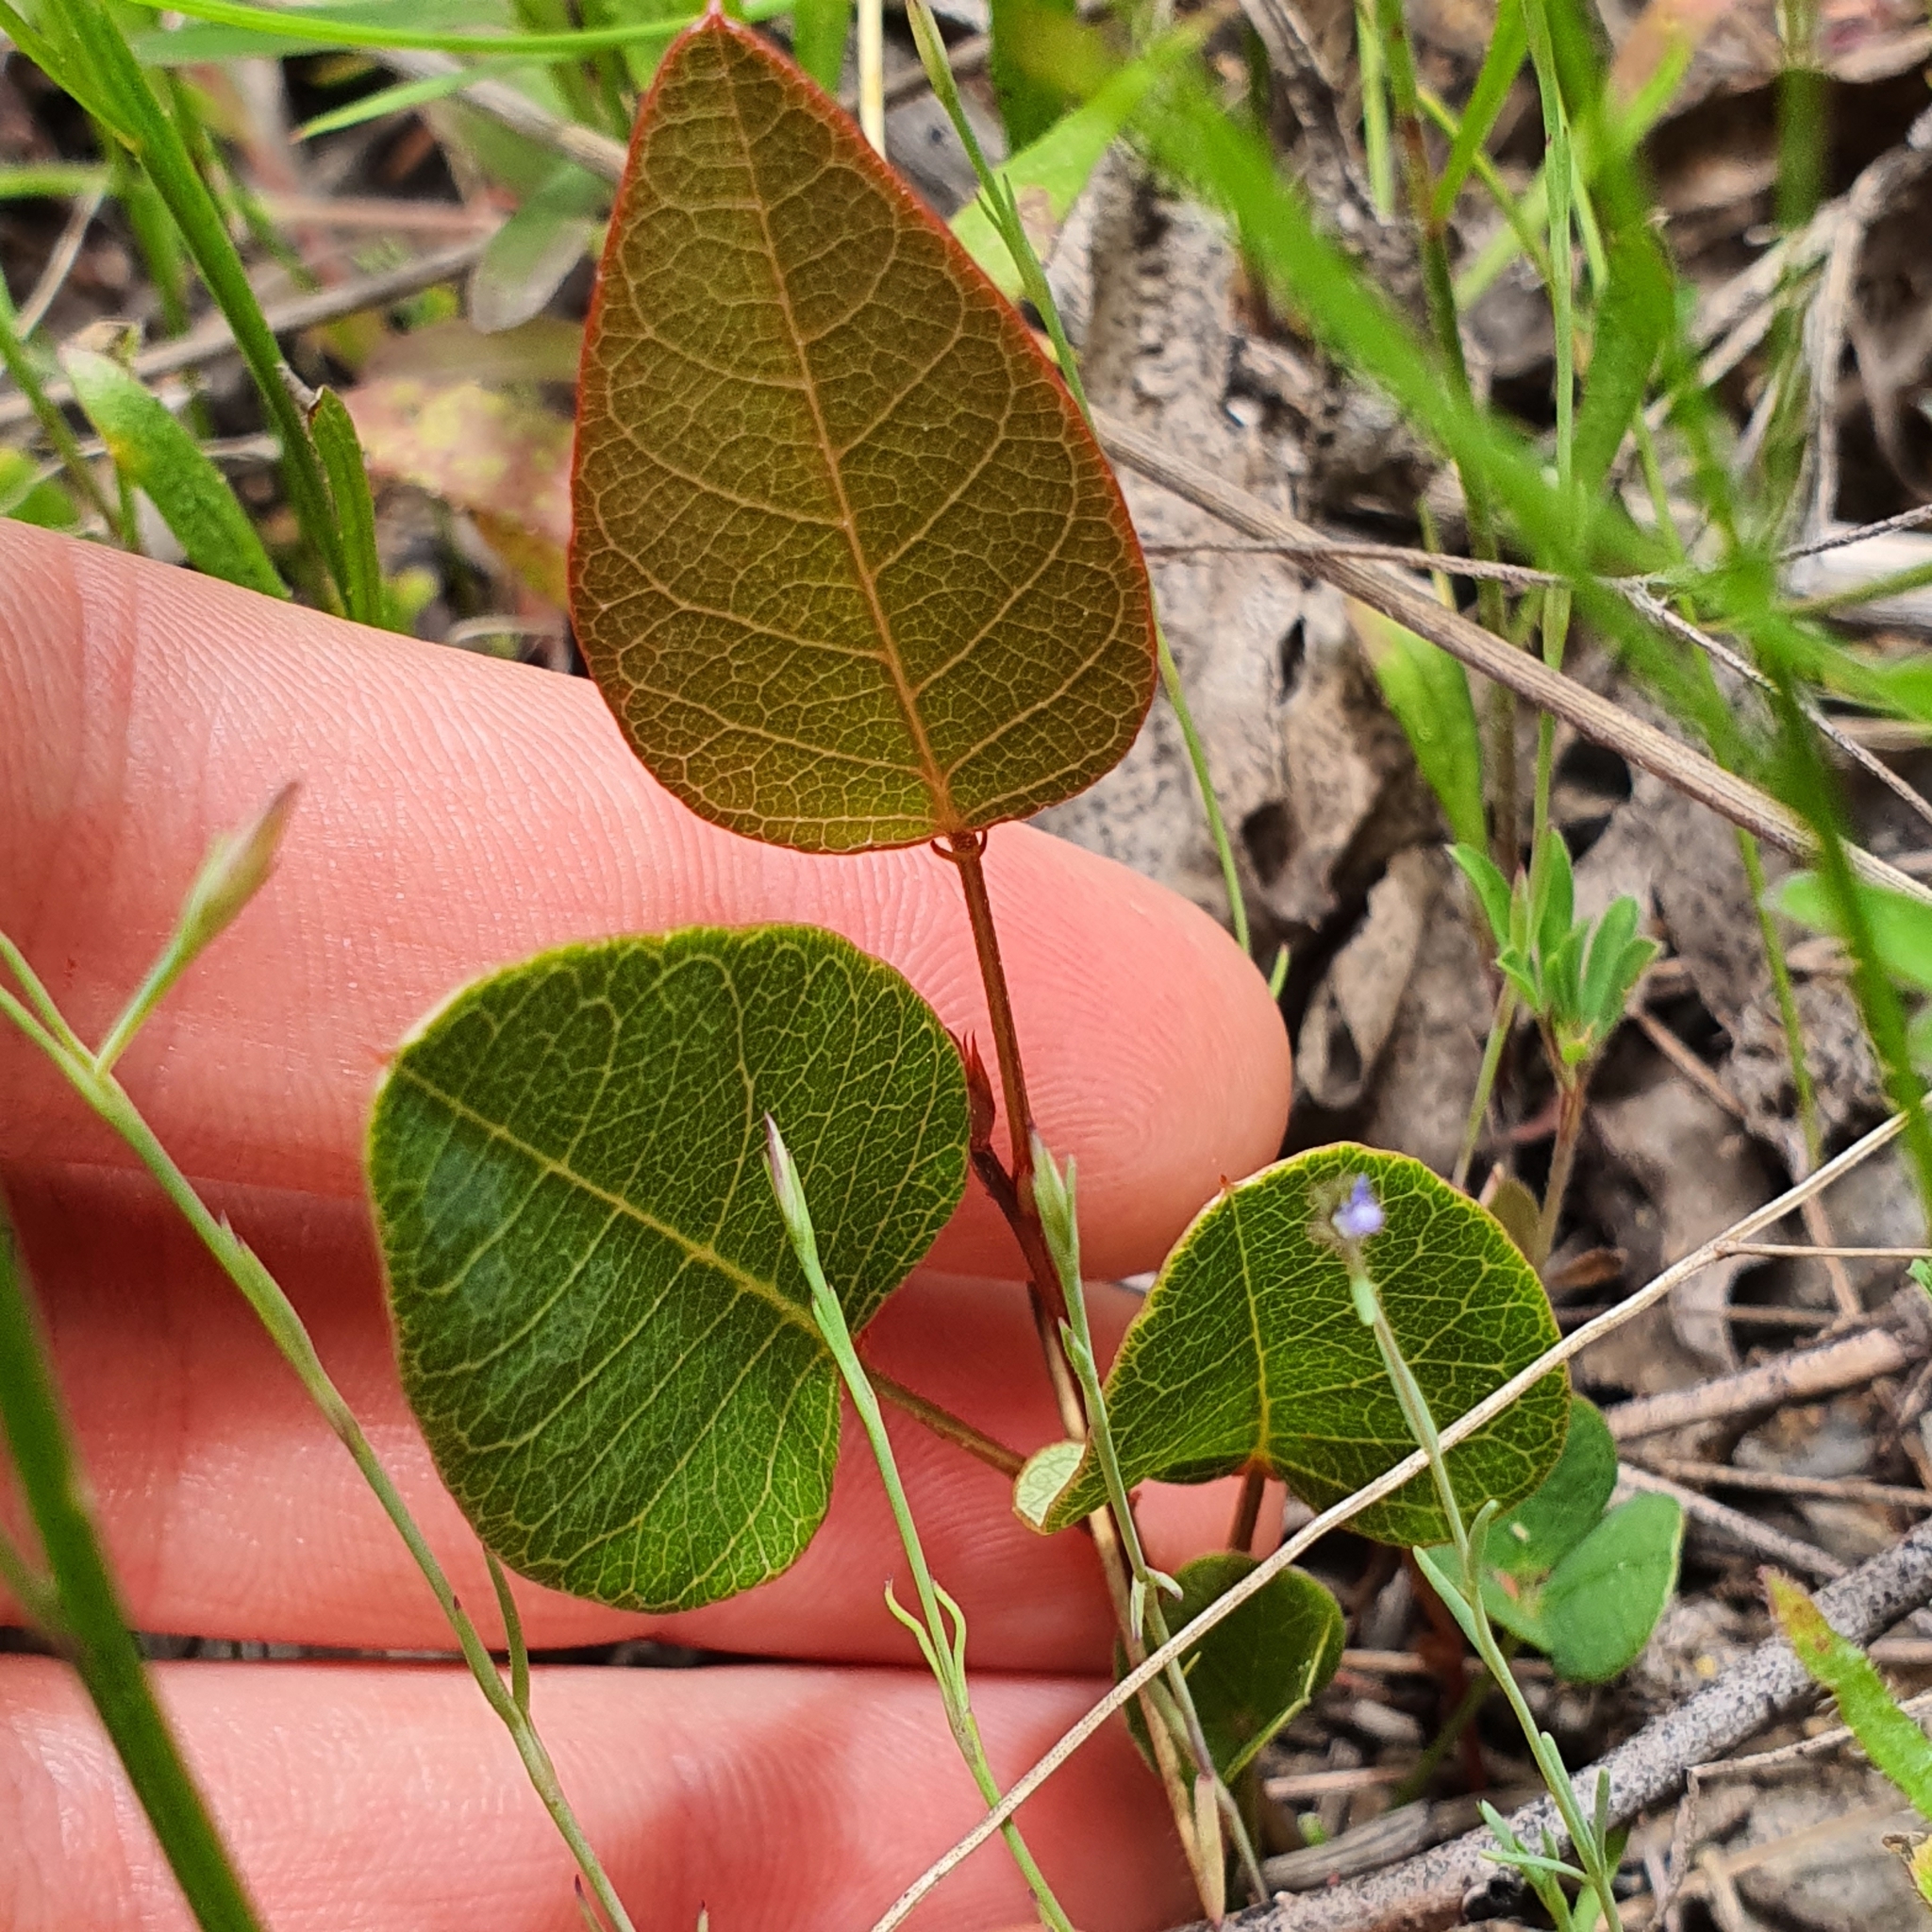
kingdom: Plantae
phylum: Tracheophyta
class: Magnoliopsida
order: Fabales
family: Fabaceae
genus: Hardenbergia
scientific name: Hardenbergia violacea
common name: Coral-pea
